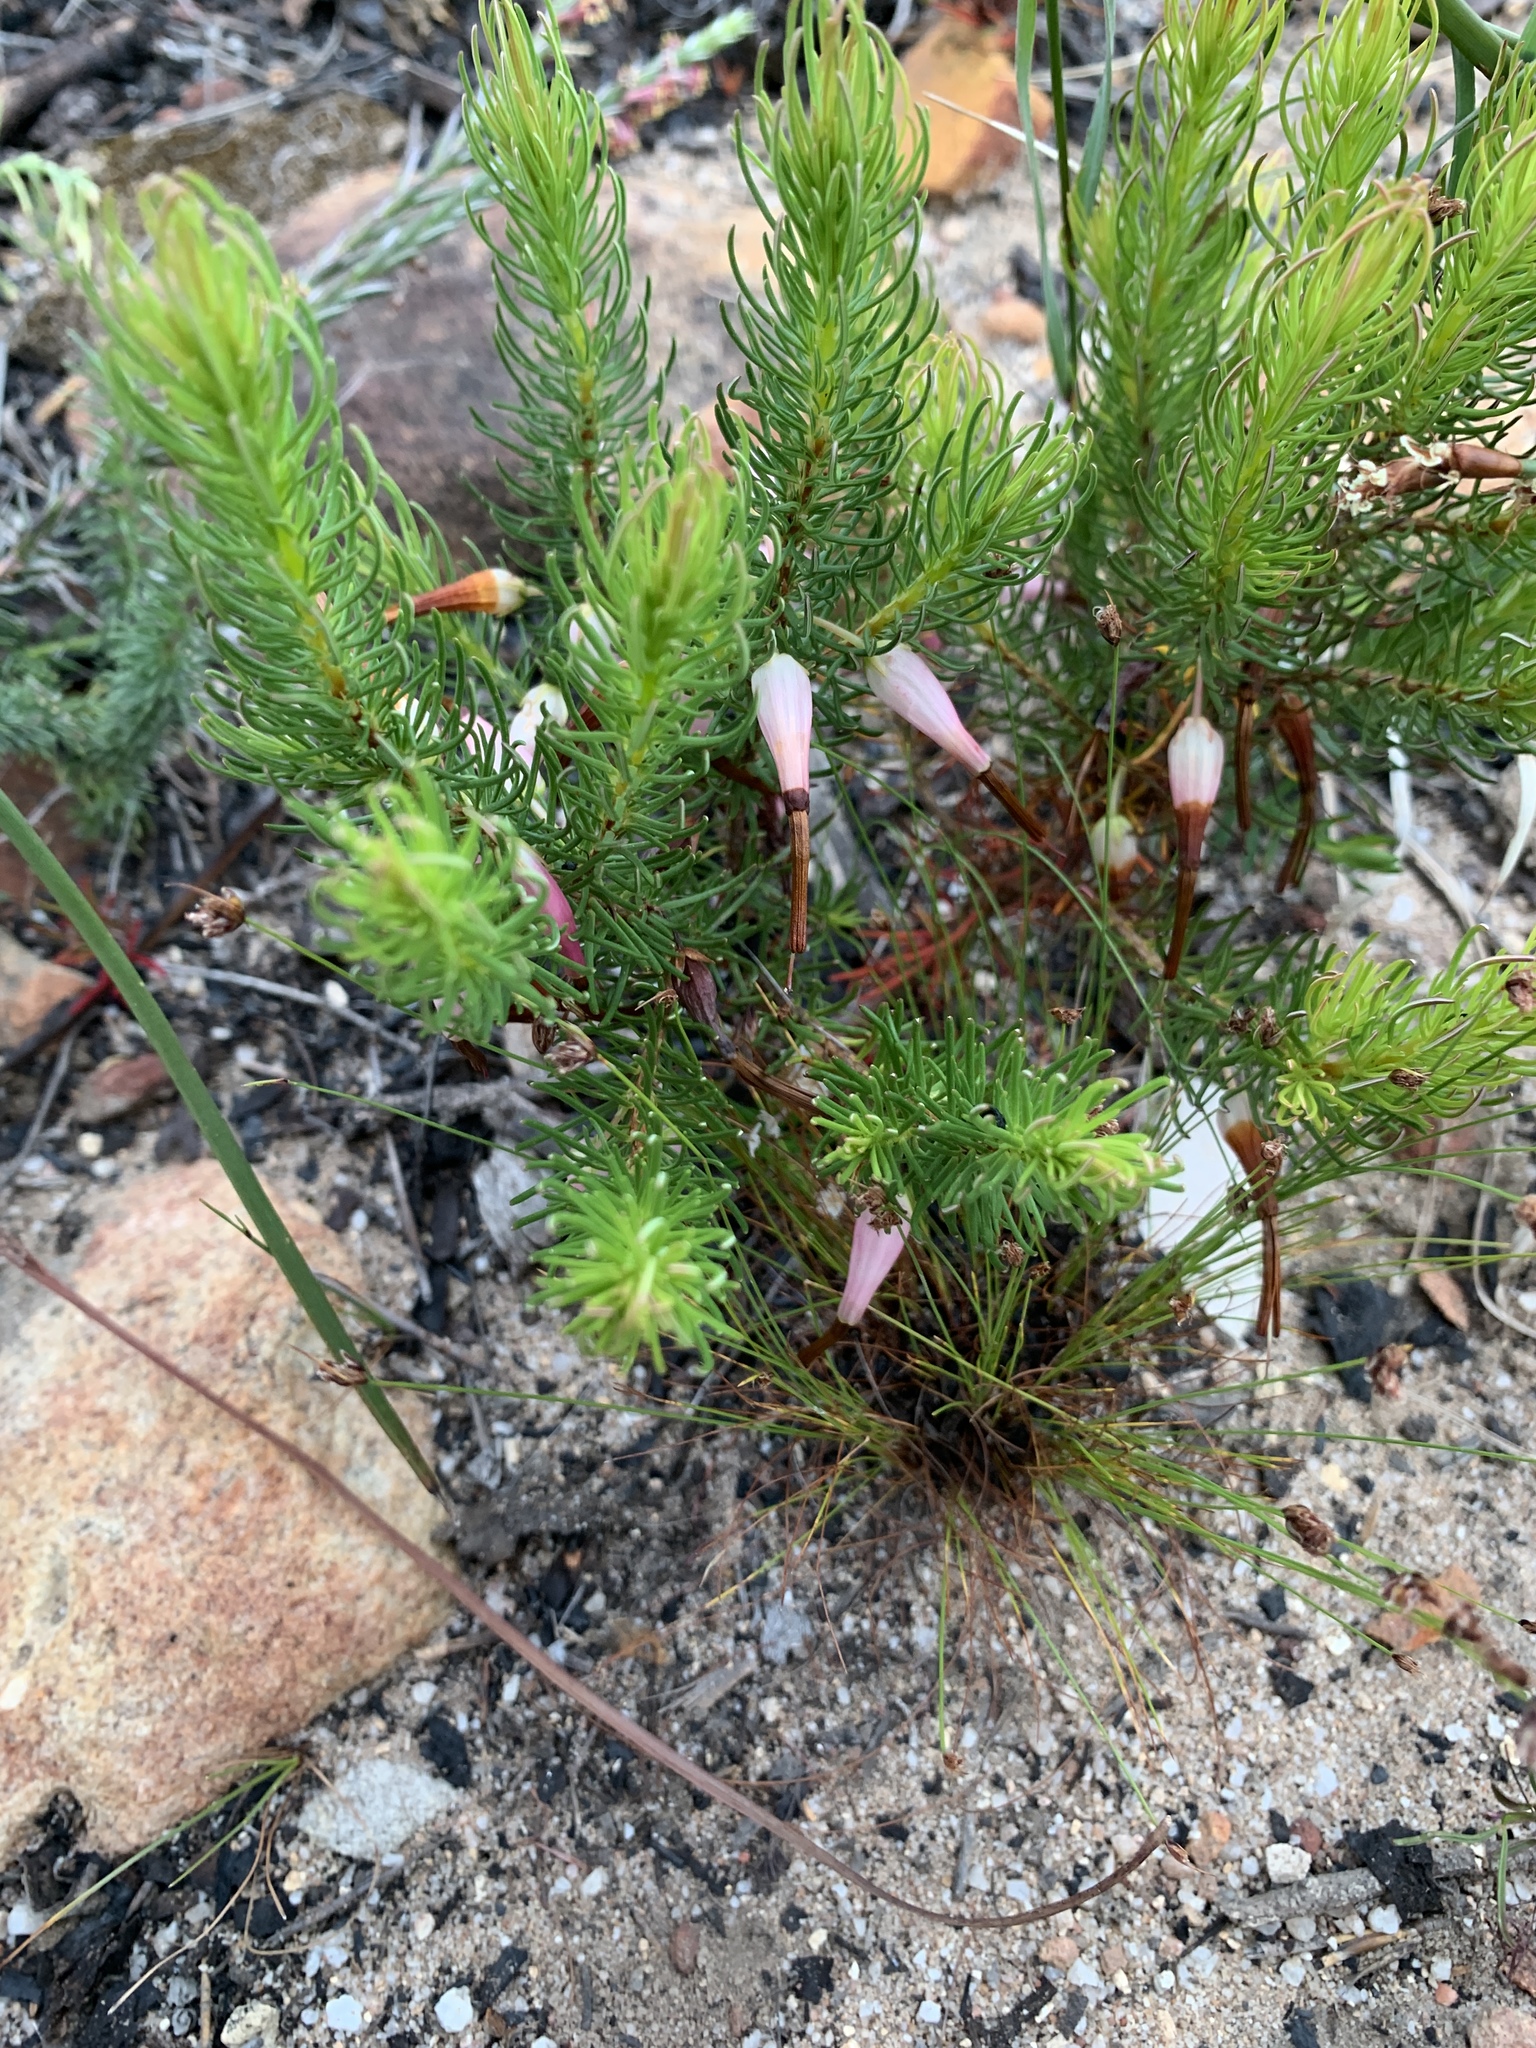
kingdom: Plantae
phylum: Tracheophyta
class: Magnoliopsida
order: Ericales
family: Ericaceae
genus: Erica
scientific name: Erica plukenetii
